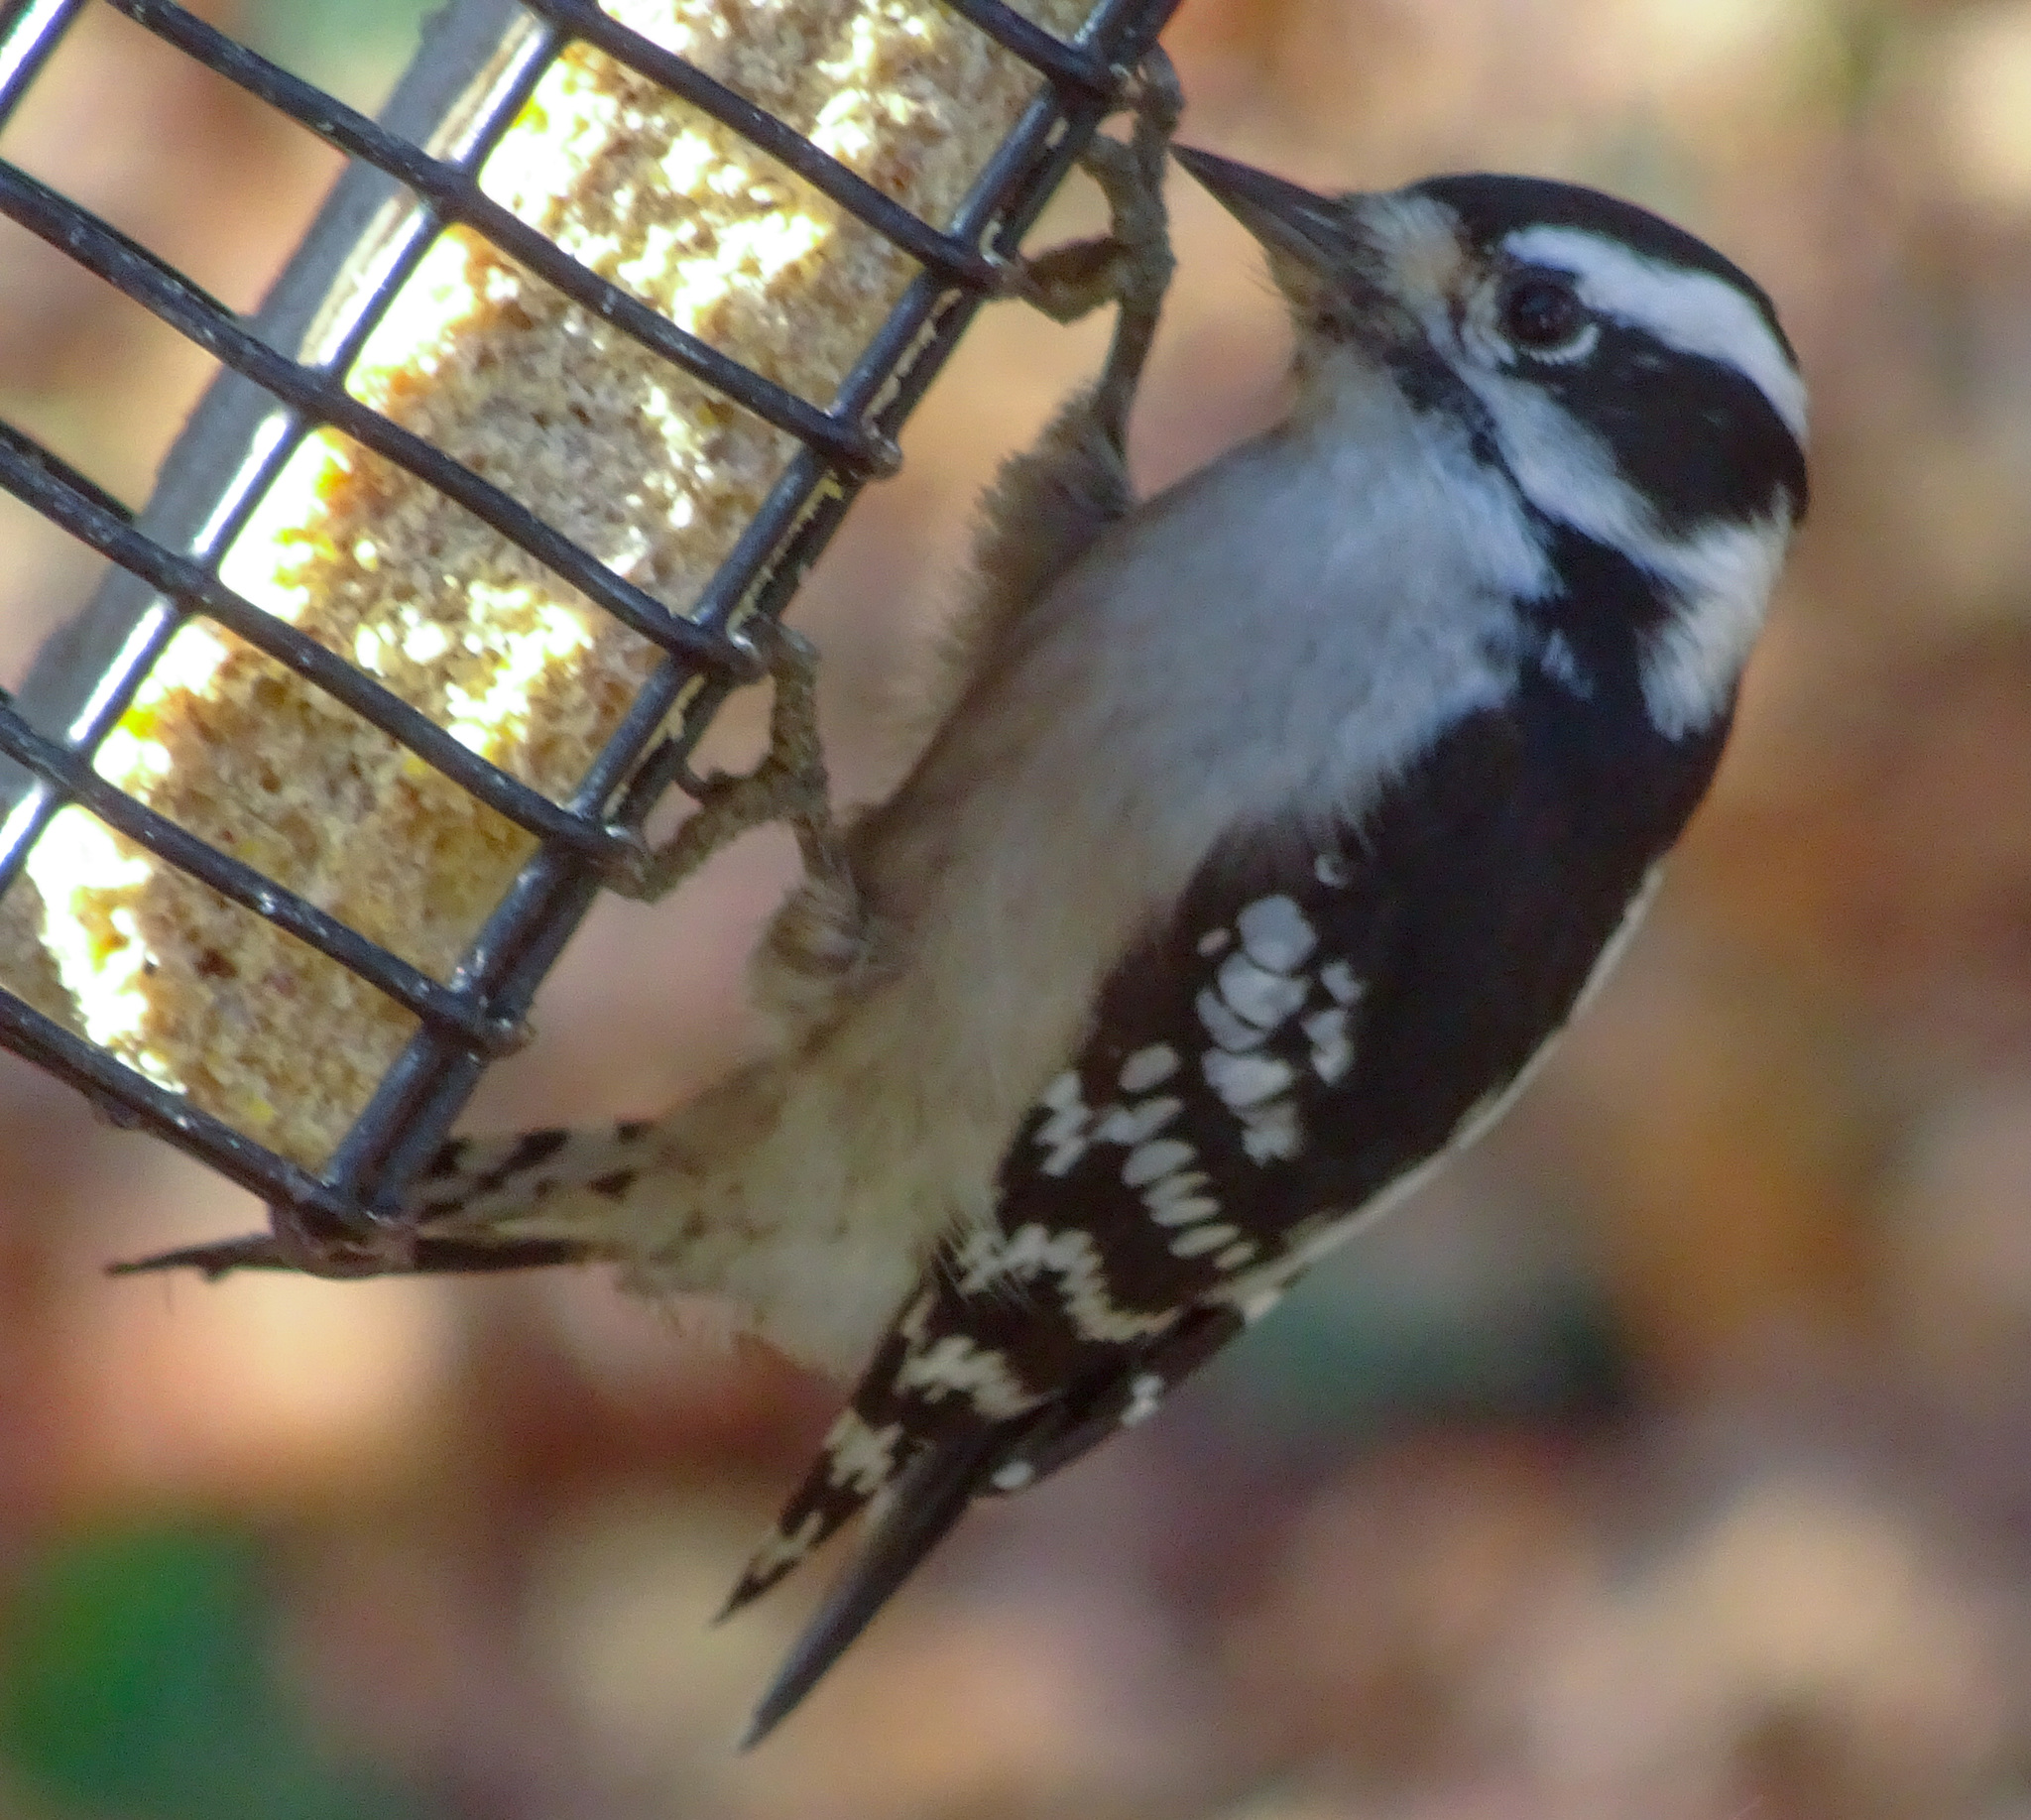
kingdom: Animalia
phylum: Chordata
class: Aves
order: Piciformes
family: Picidae
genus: Dryobates
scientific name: Dryobates pubescens
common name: Downy woodpecker
